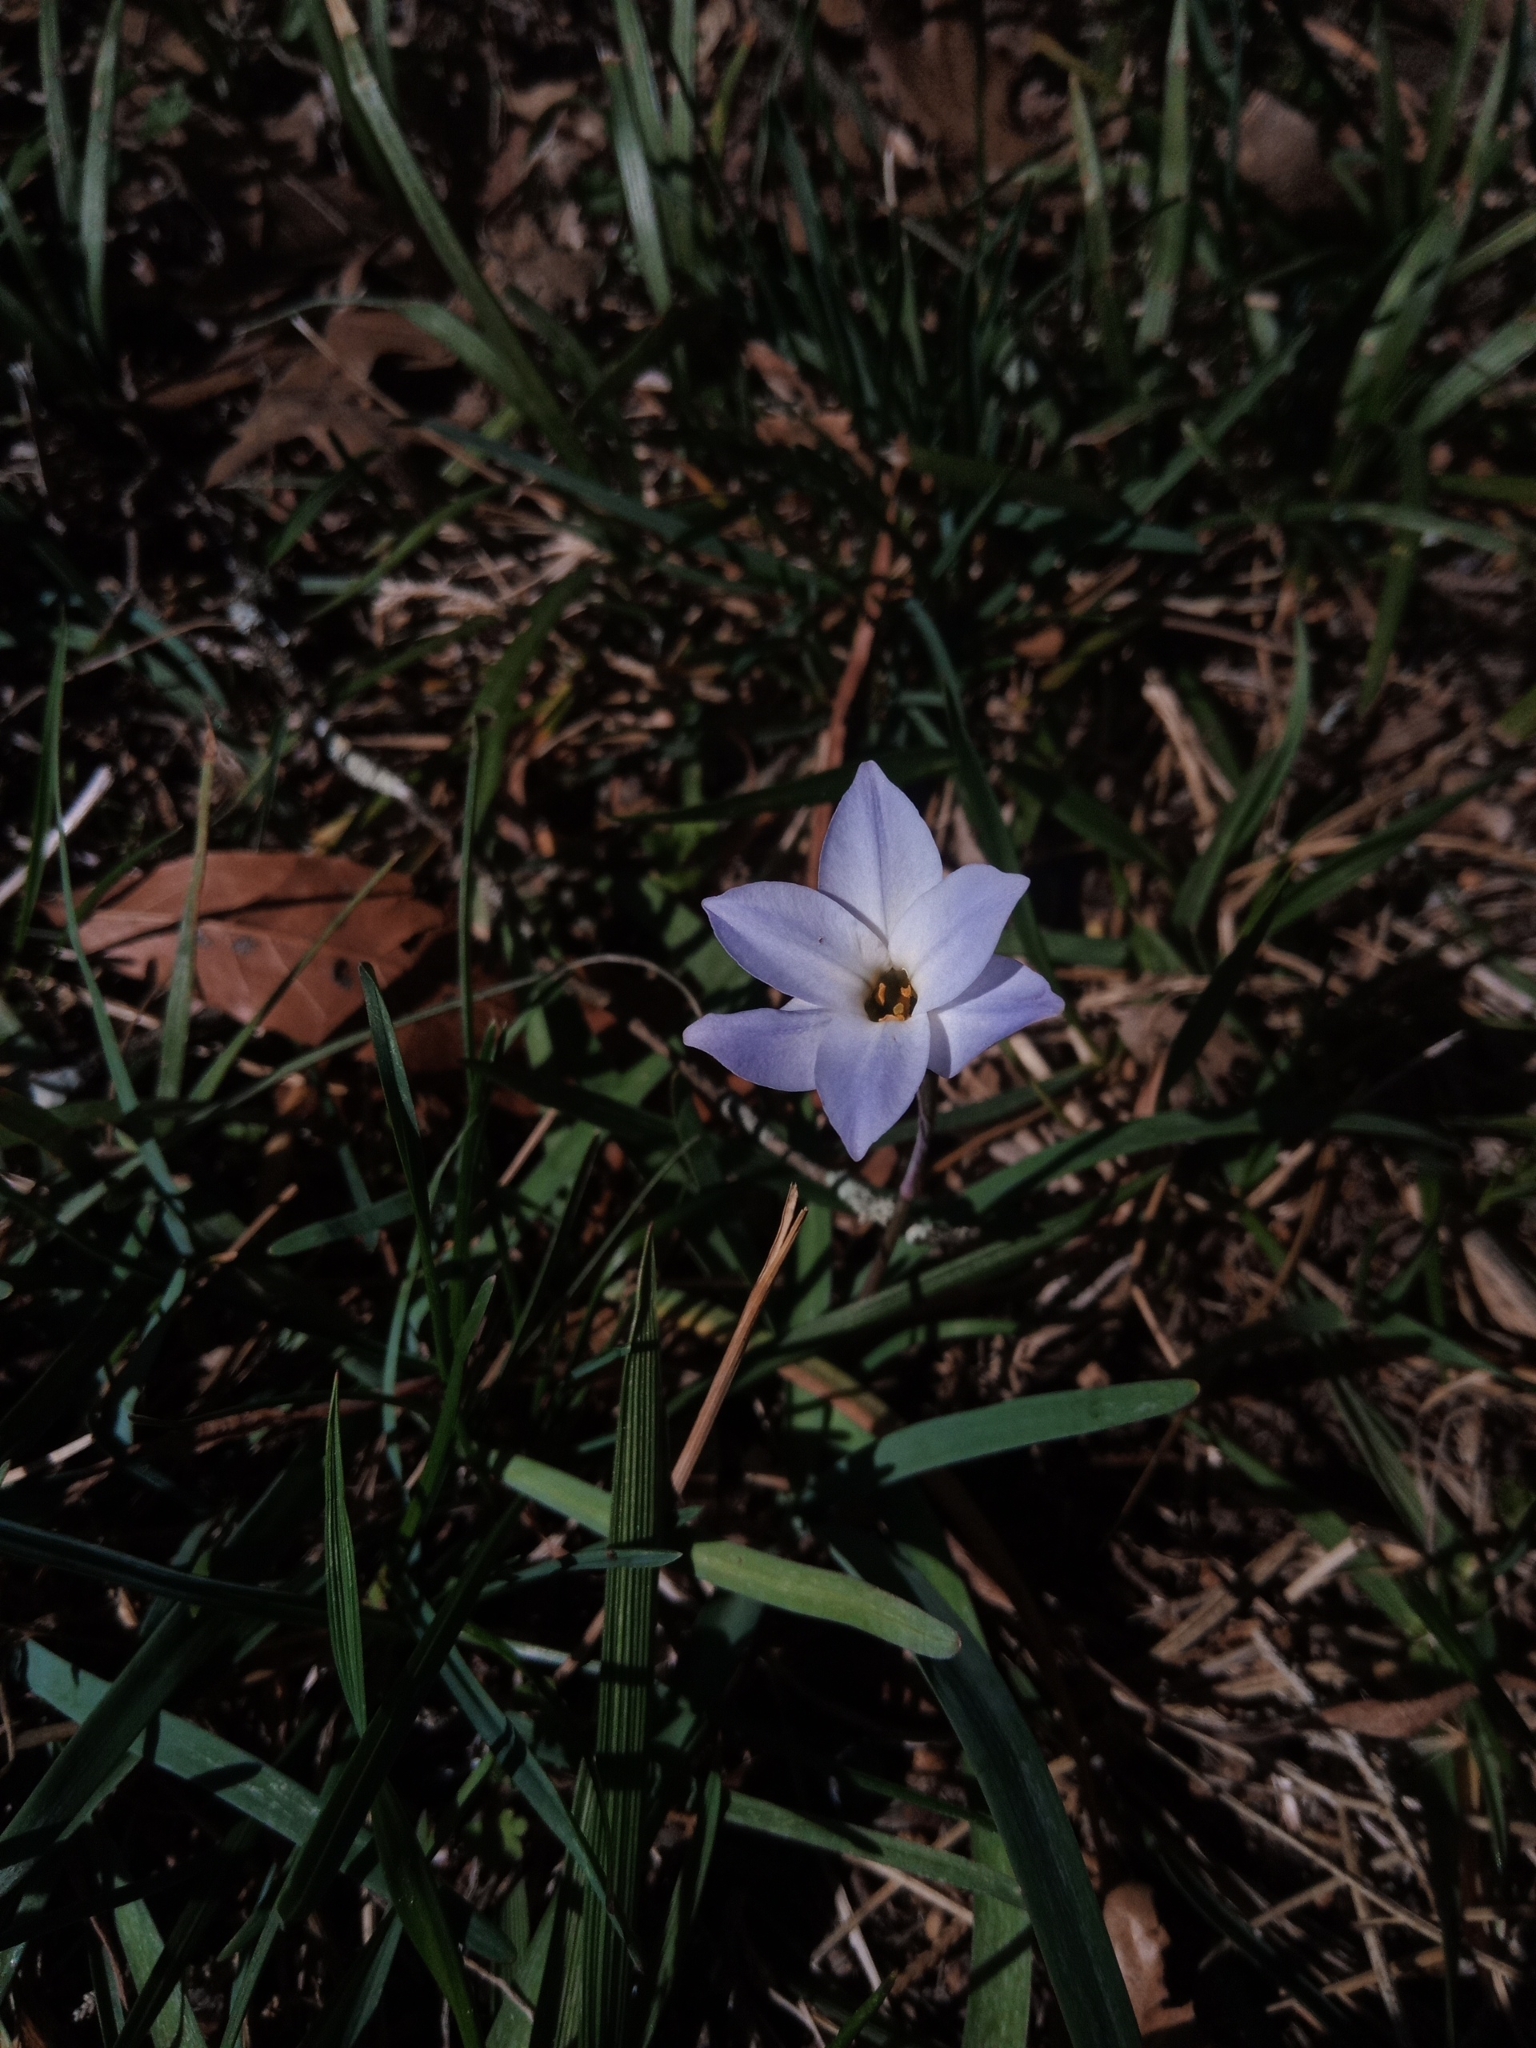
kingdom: Plantae
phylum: Tracheophyta
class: Liliopsida
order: Asparagales
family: Amaryllidaceae
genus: Ipheion
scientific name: Ipheion uniflorum
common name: Spring starflower
